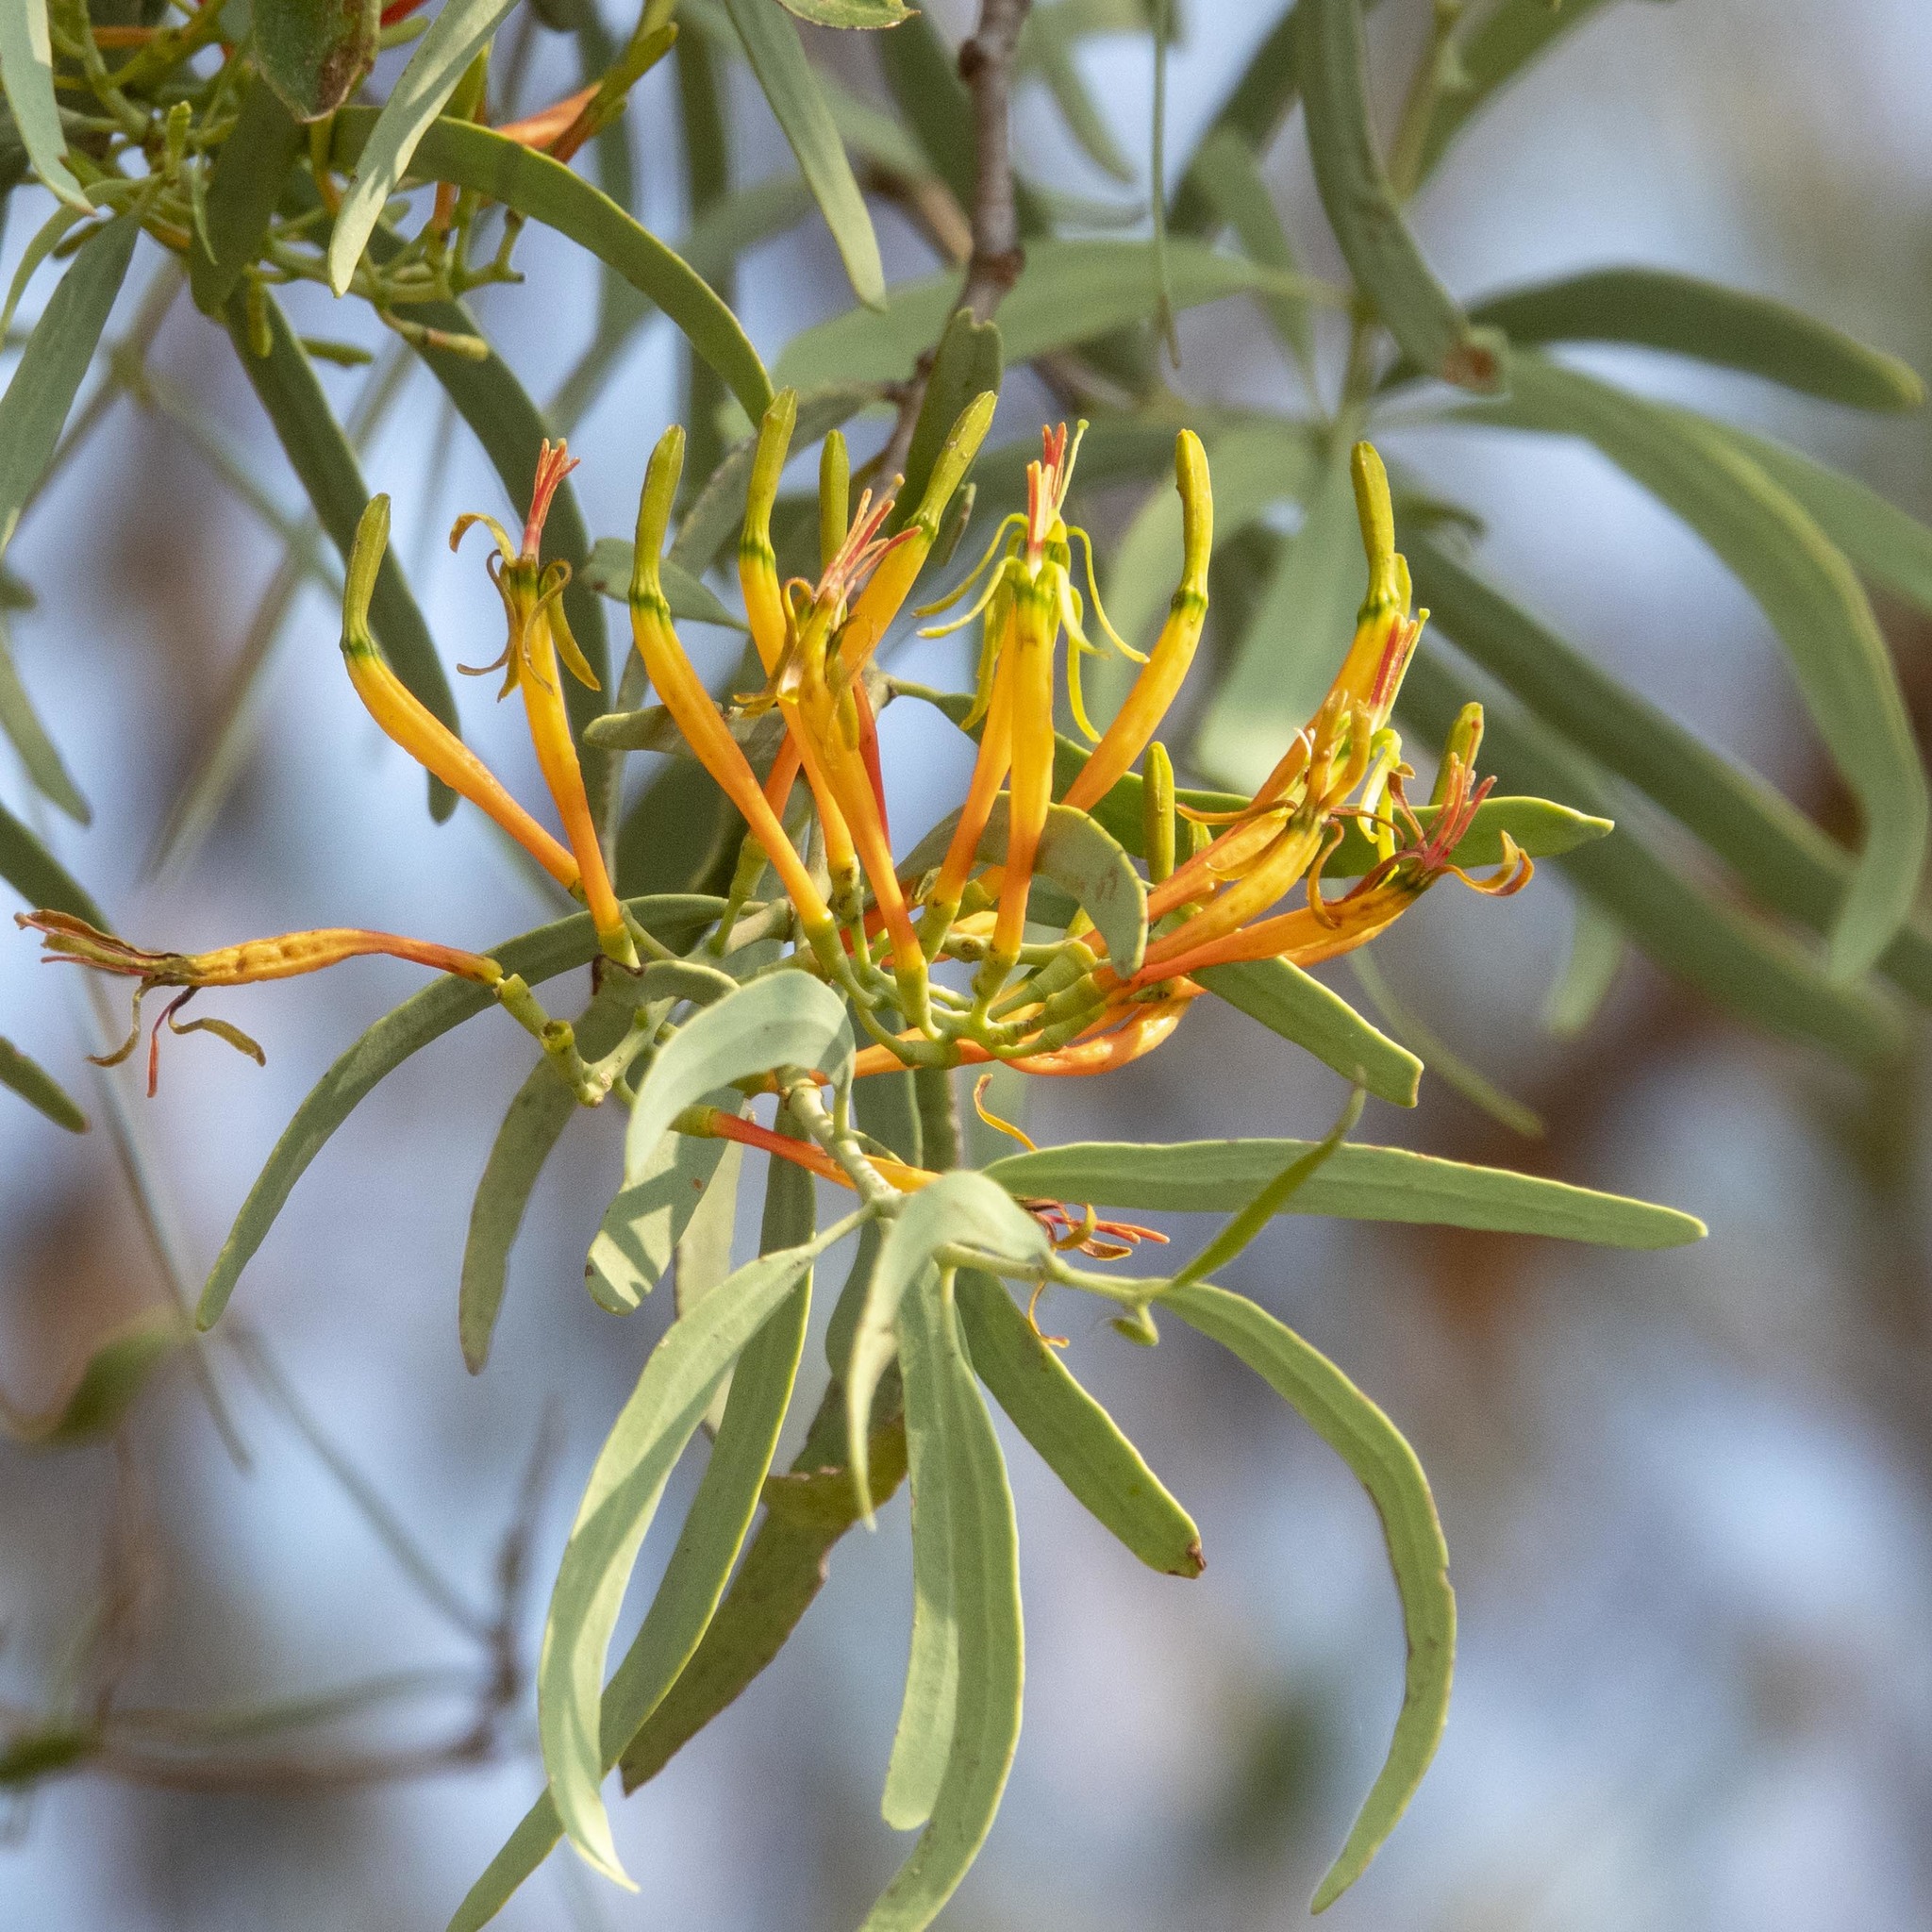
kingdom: Plantae
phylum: Tracheophyta
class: Magnoliopsida
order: Santalales
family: Loranthaceae
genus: Dendrophthoe
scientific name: Dendrophthoe gamblei
